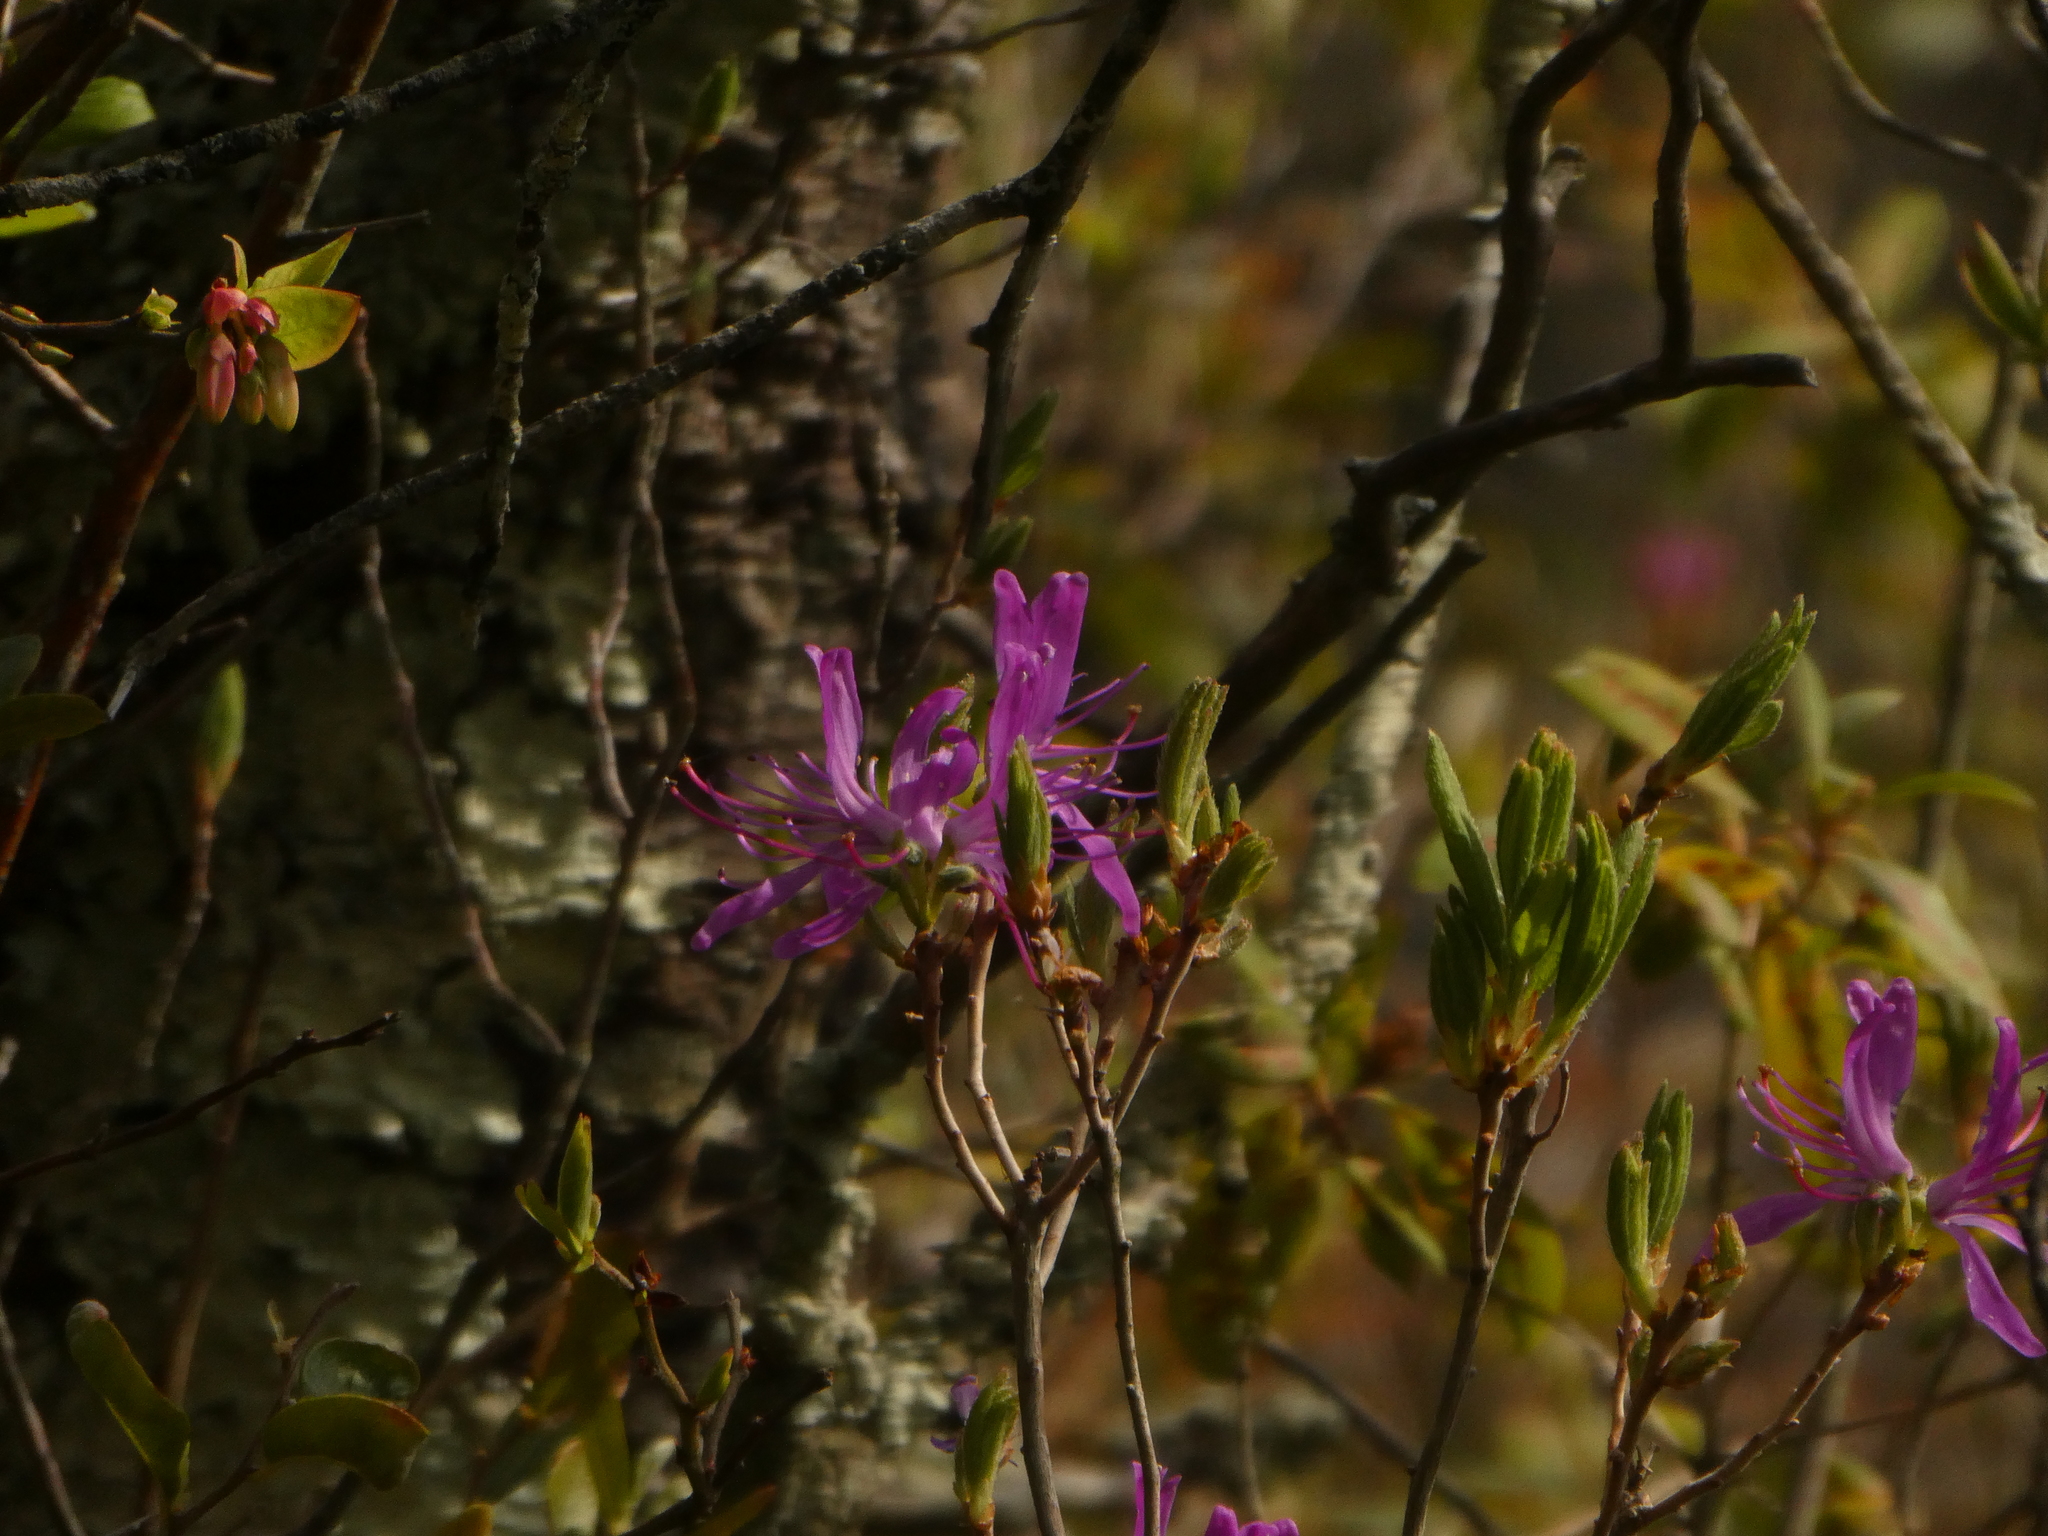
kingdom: Plantae
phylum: Tracheophyta
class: Magnoliopsida
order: Ericales
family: Ericaceae
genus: Rhododendron
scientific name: Rhododendron canadense
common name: Rhodora
